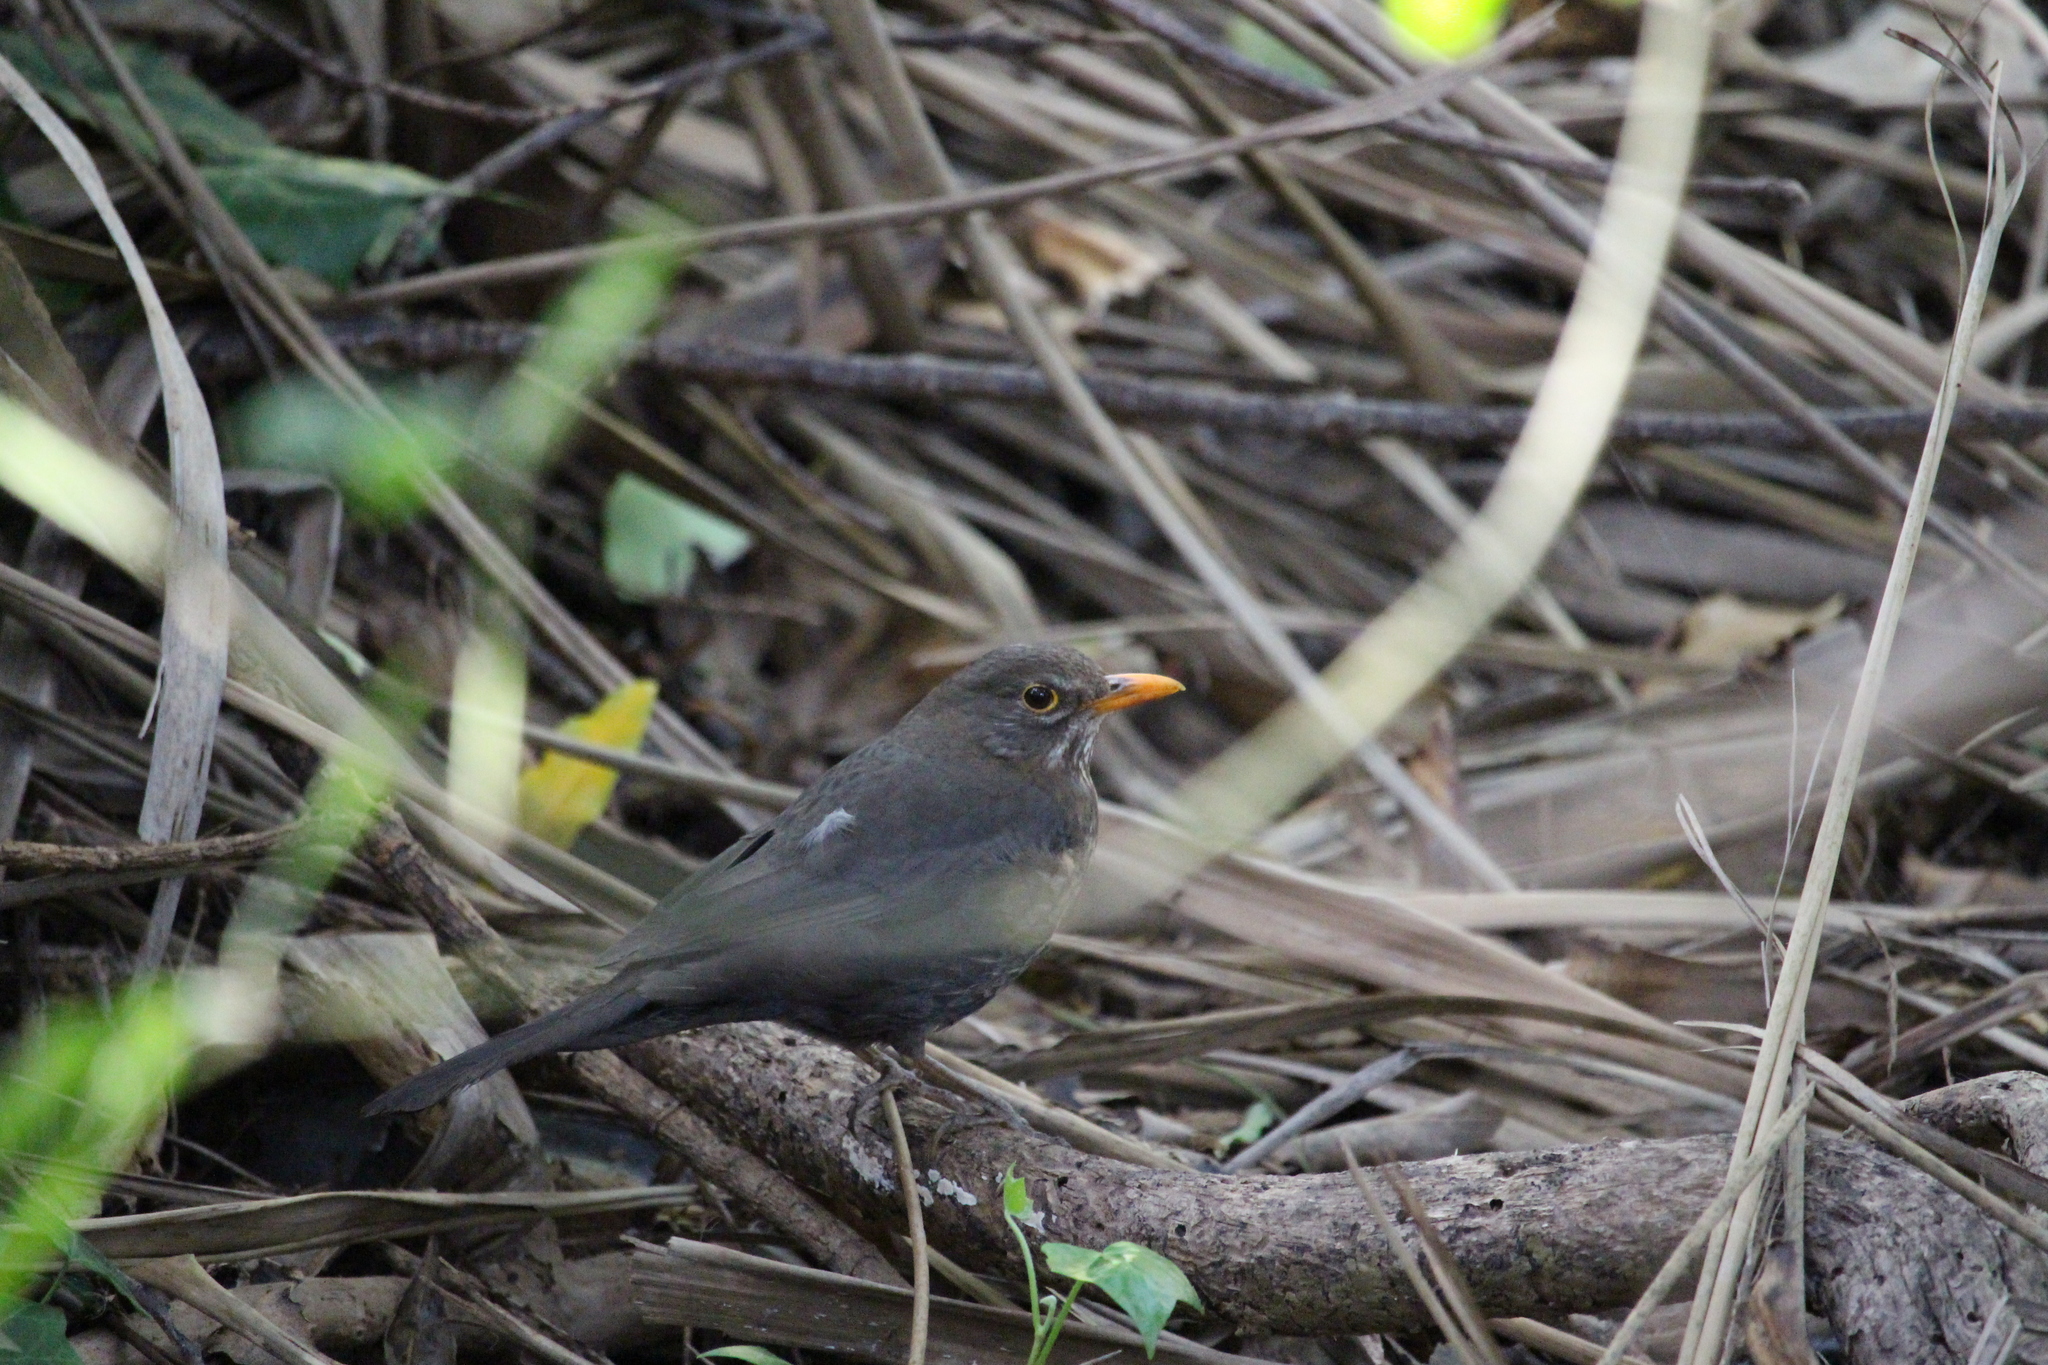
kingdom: Animalia
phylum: Chordata
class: Aves
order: Passeriformes
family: Turdidae
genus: Turdus
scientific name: Turdus merula
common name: Common blackbird
